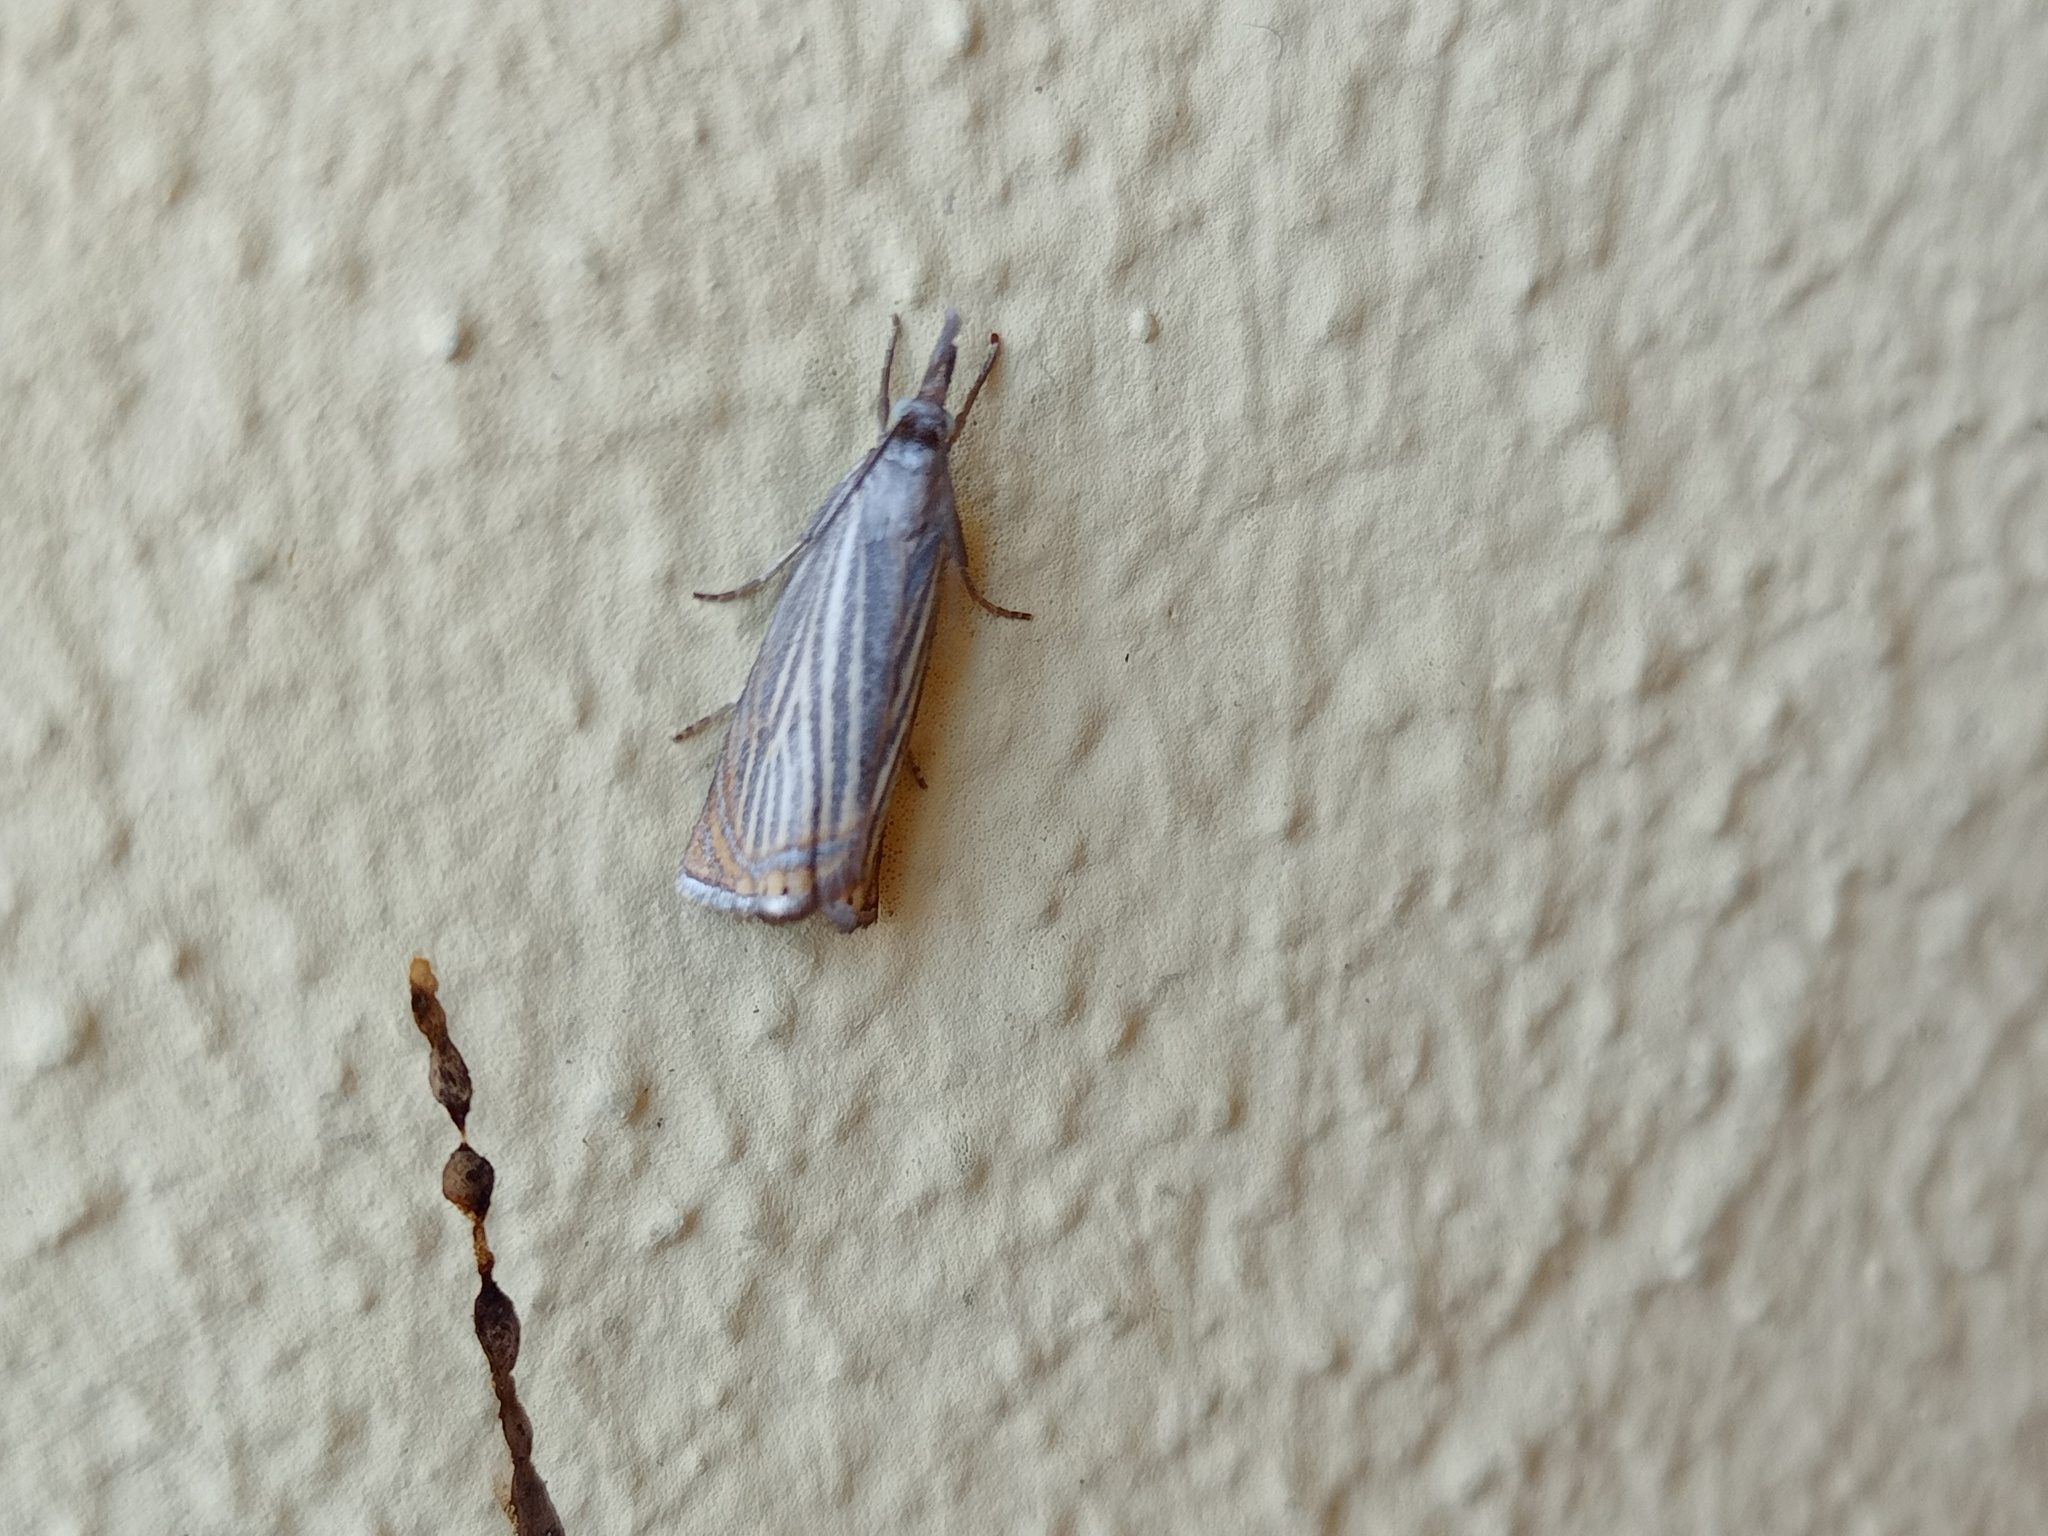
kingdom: Animalia
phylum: Arthropoda
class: Insecta
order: Lepidoptera
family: Crambidae
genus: Chrysoteuchia
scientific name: Chrysoteuchia culmella
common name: Garden grass-veneer
